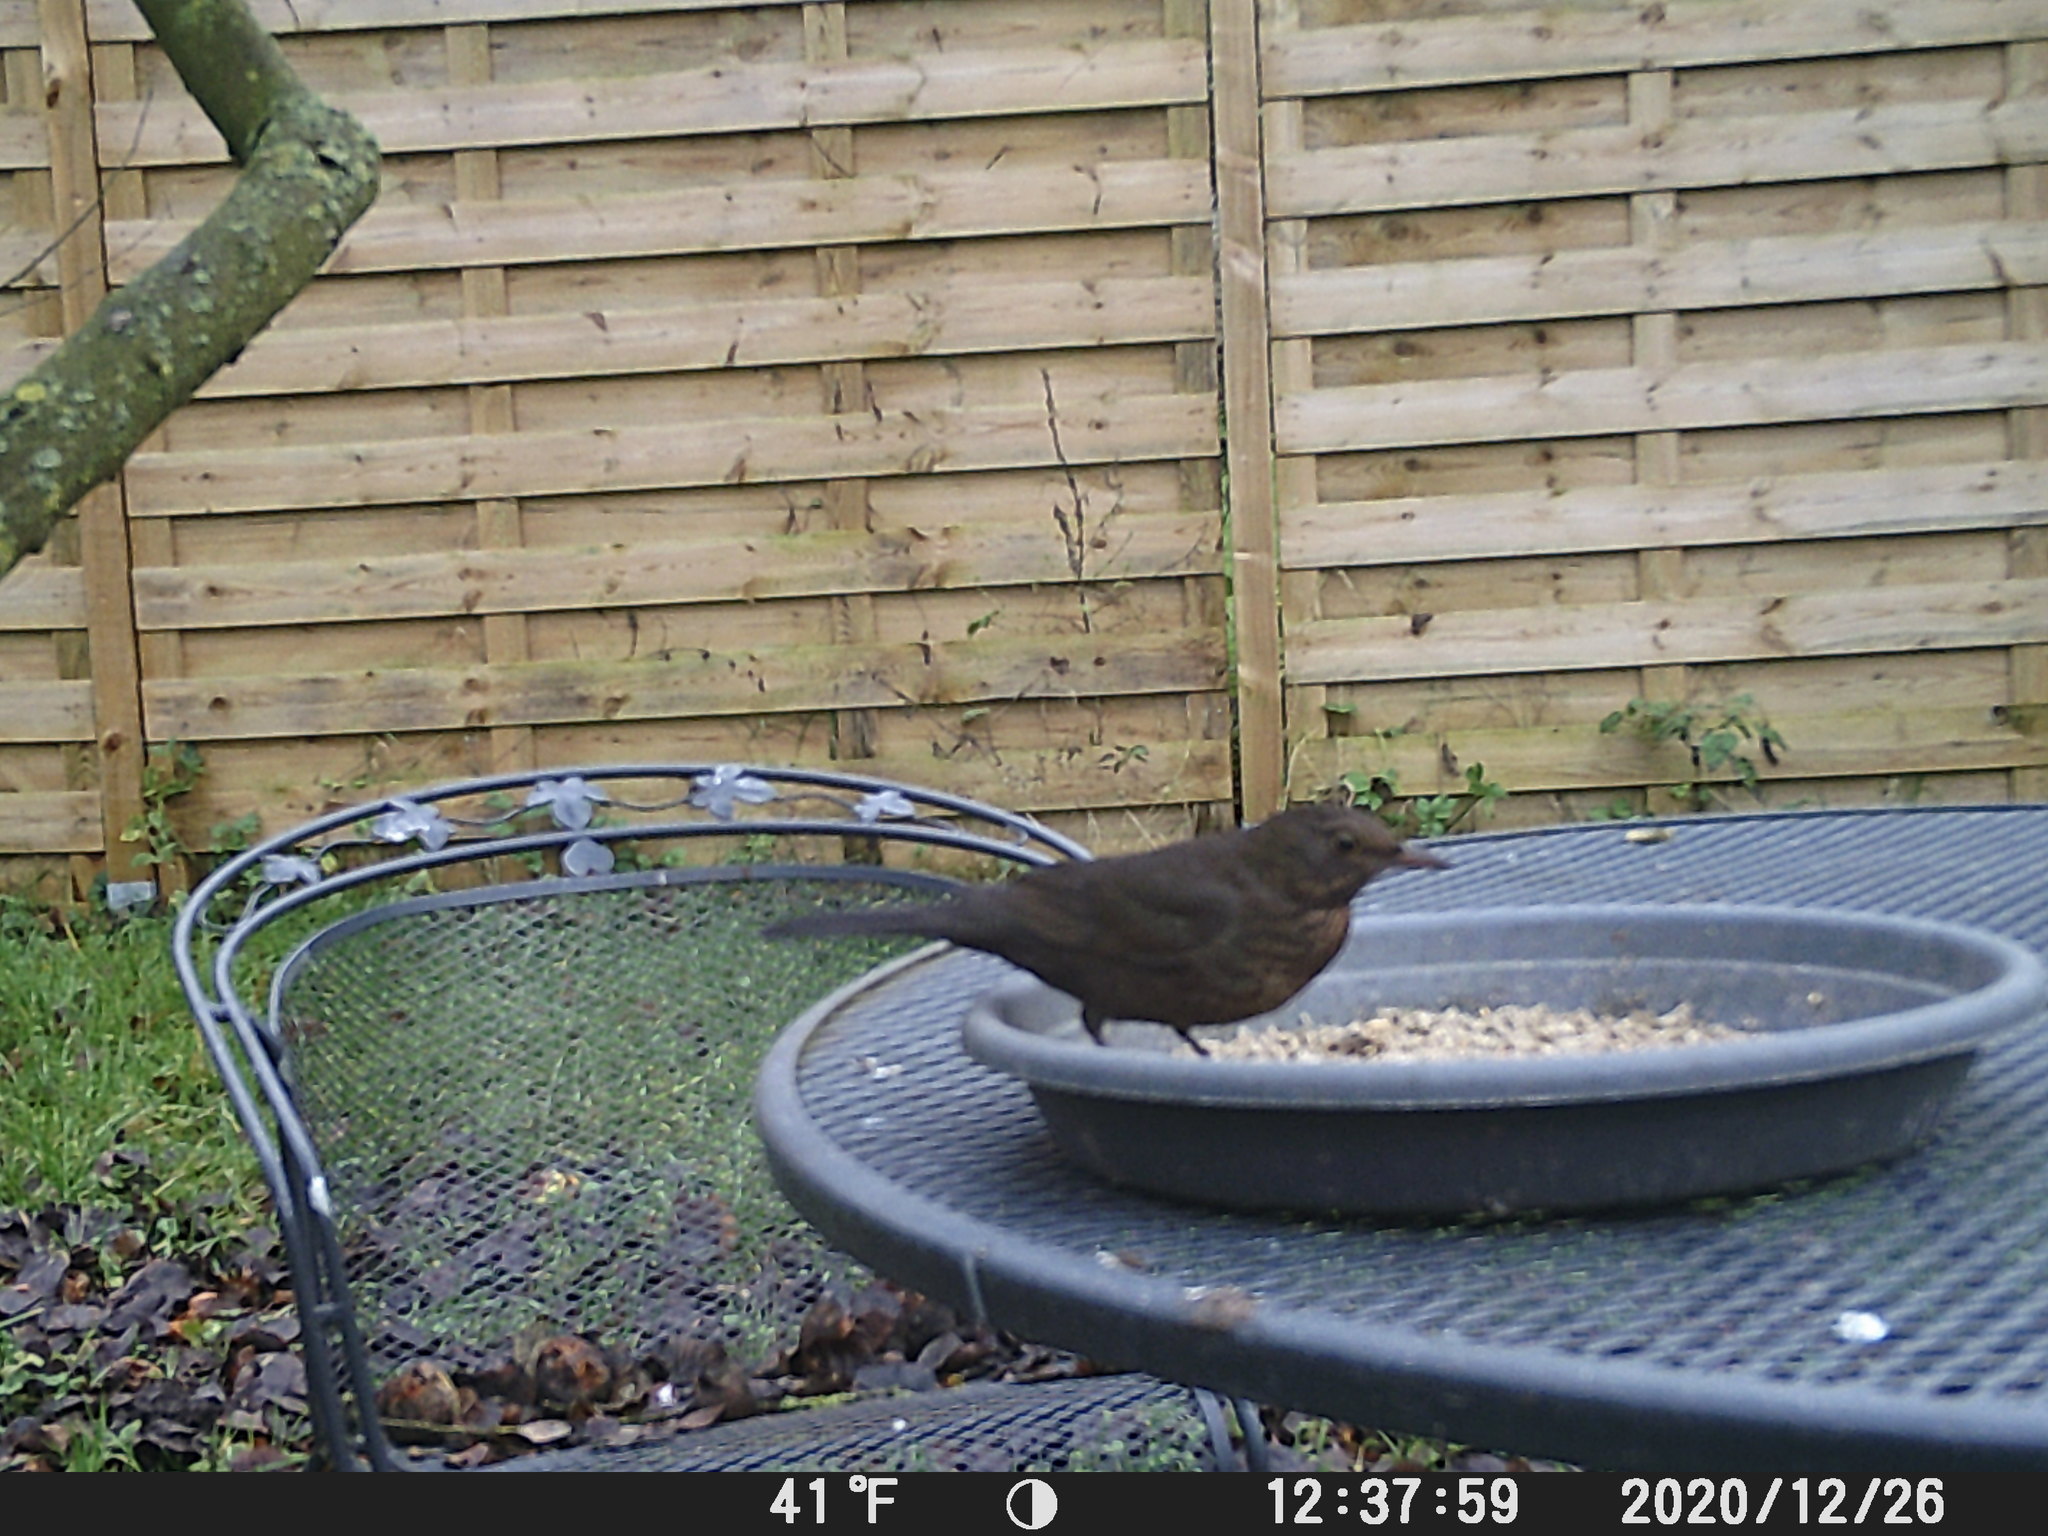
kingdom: Animalia
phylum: Chordata
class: Aves
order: Passeriformes
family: Turdidae
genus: Turdus
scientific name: Turdus merula
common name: Common blackbird
